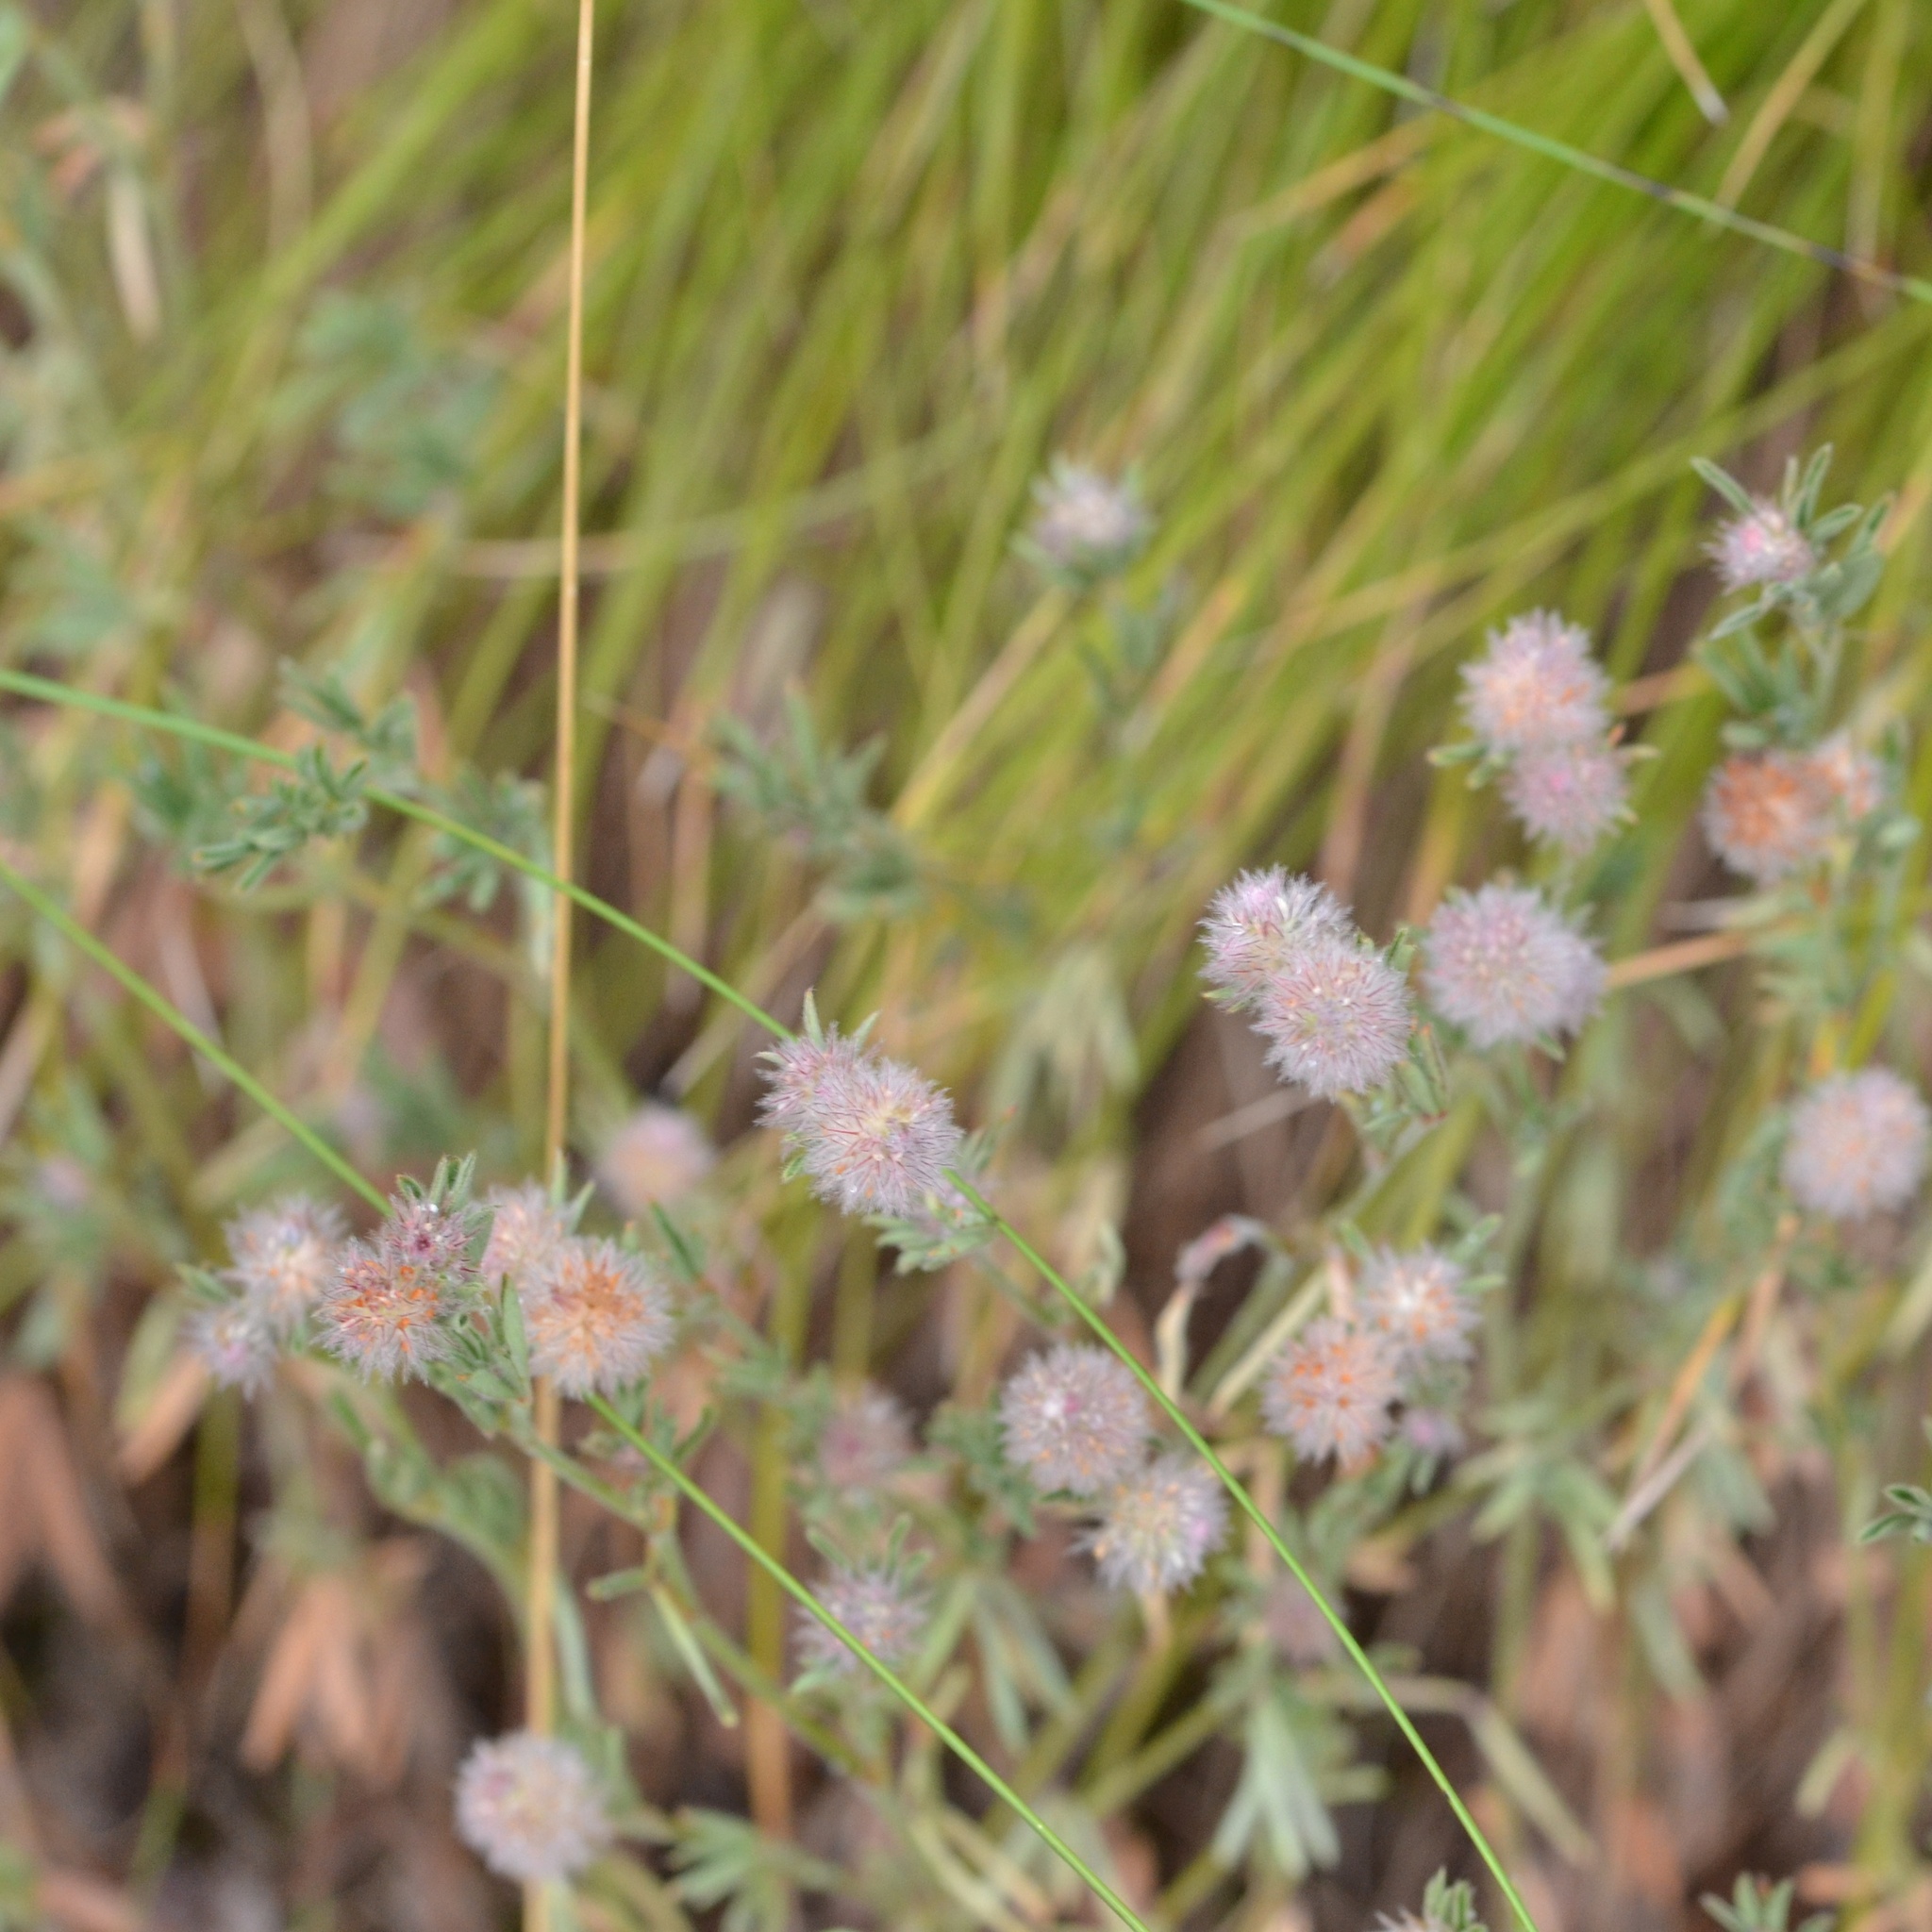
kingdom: Plantae
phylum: Tracheophyta
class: Magnoliopsida
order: Fabales
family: Fabaceae
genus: Trifolium
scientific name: Trifolium arvense
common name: Hare's-foot clover
